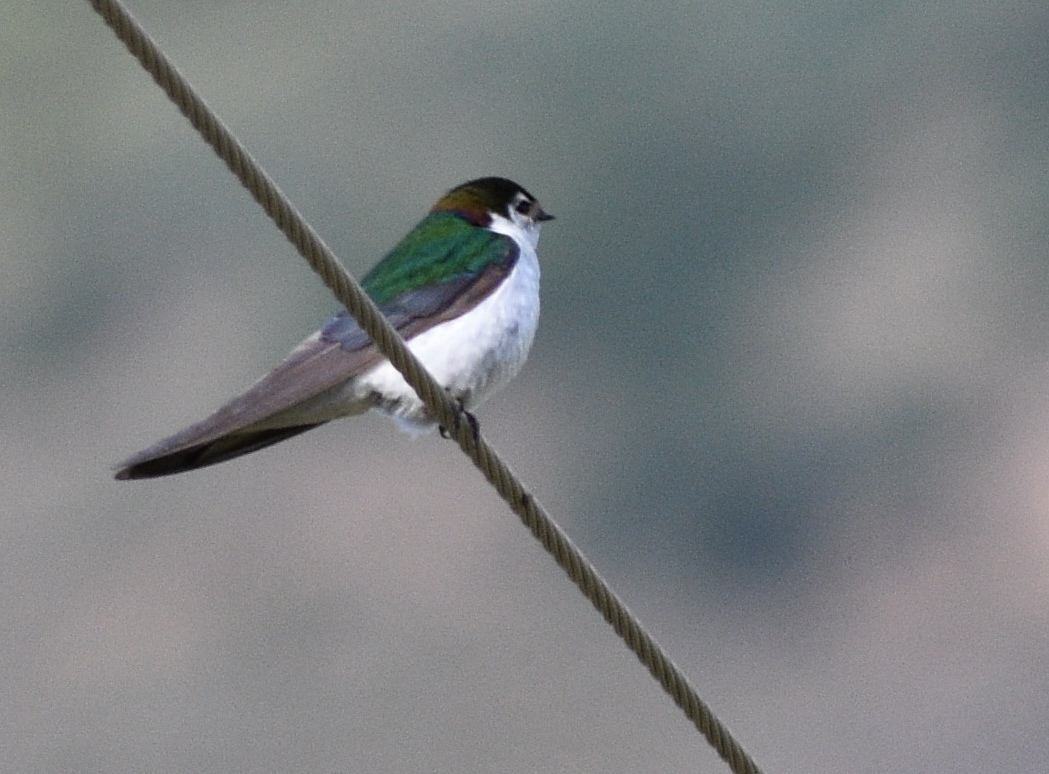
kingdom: Animalia
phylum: Chordata
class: Aves
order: Passeriformes
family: Hirundinidae
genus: Tachycineta
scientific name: Tachycineta thalassina
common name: Violet-green swallow
